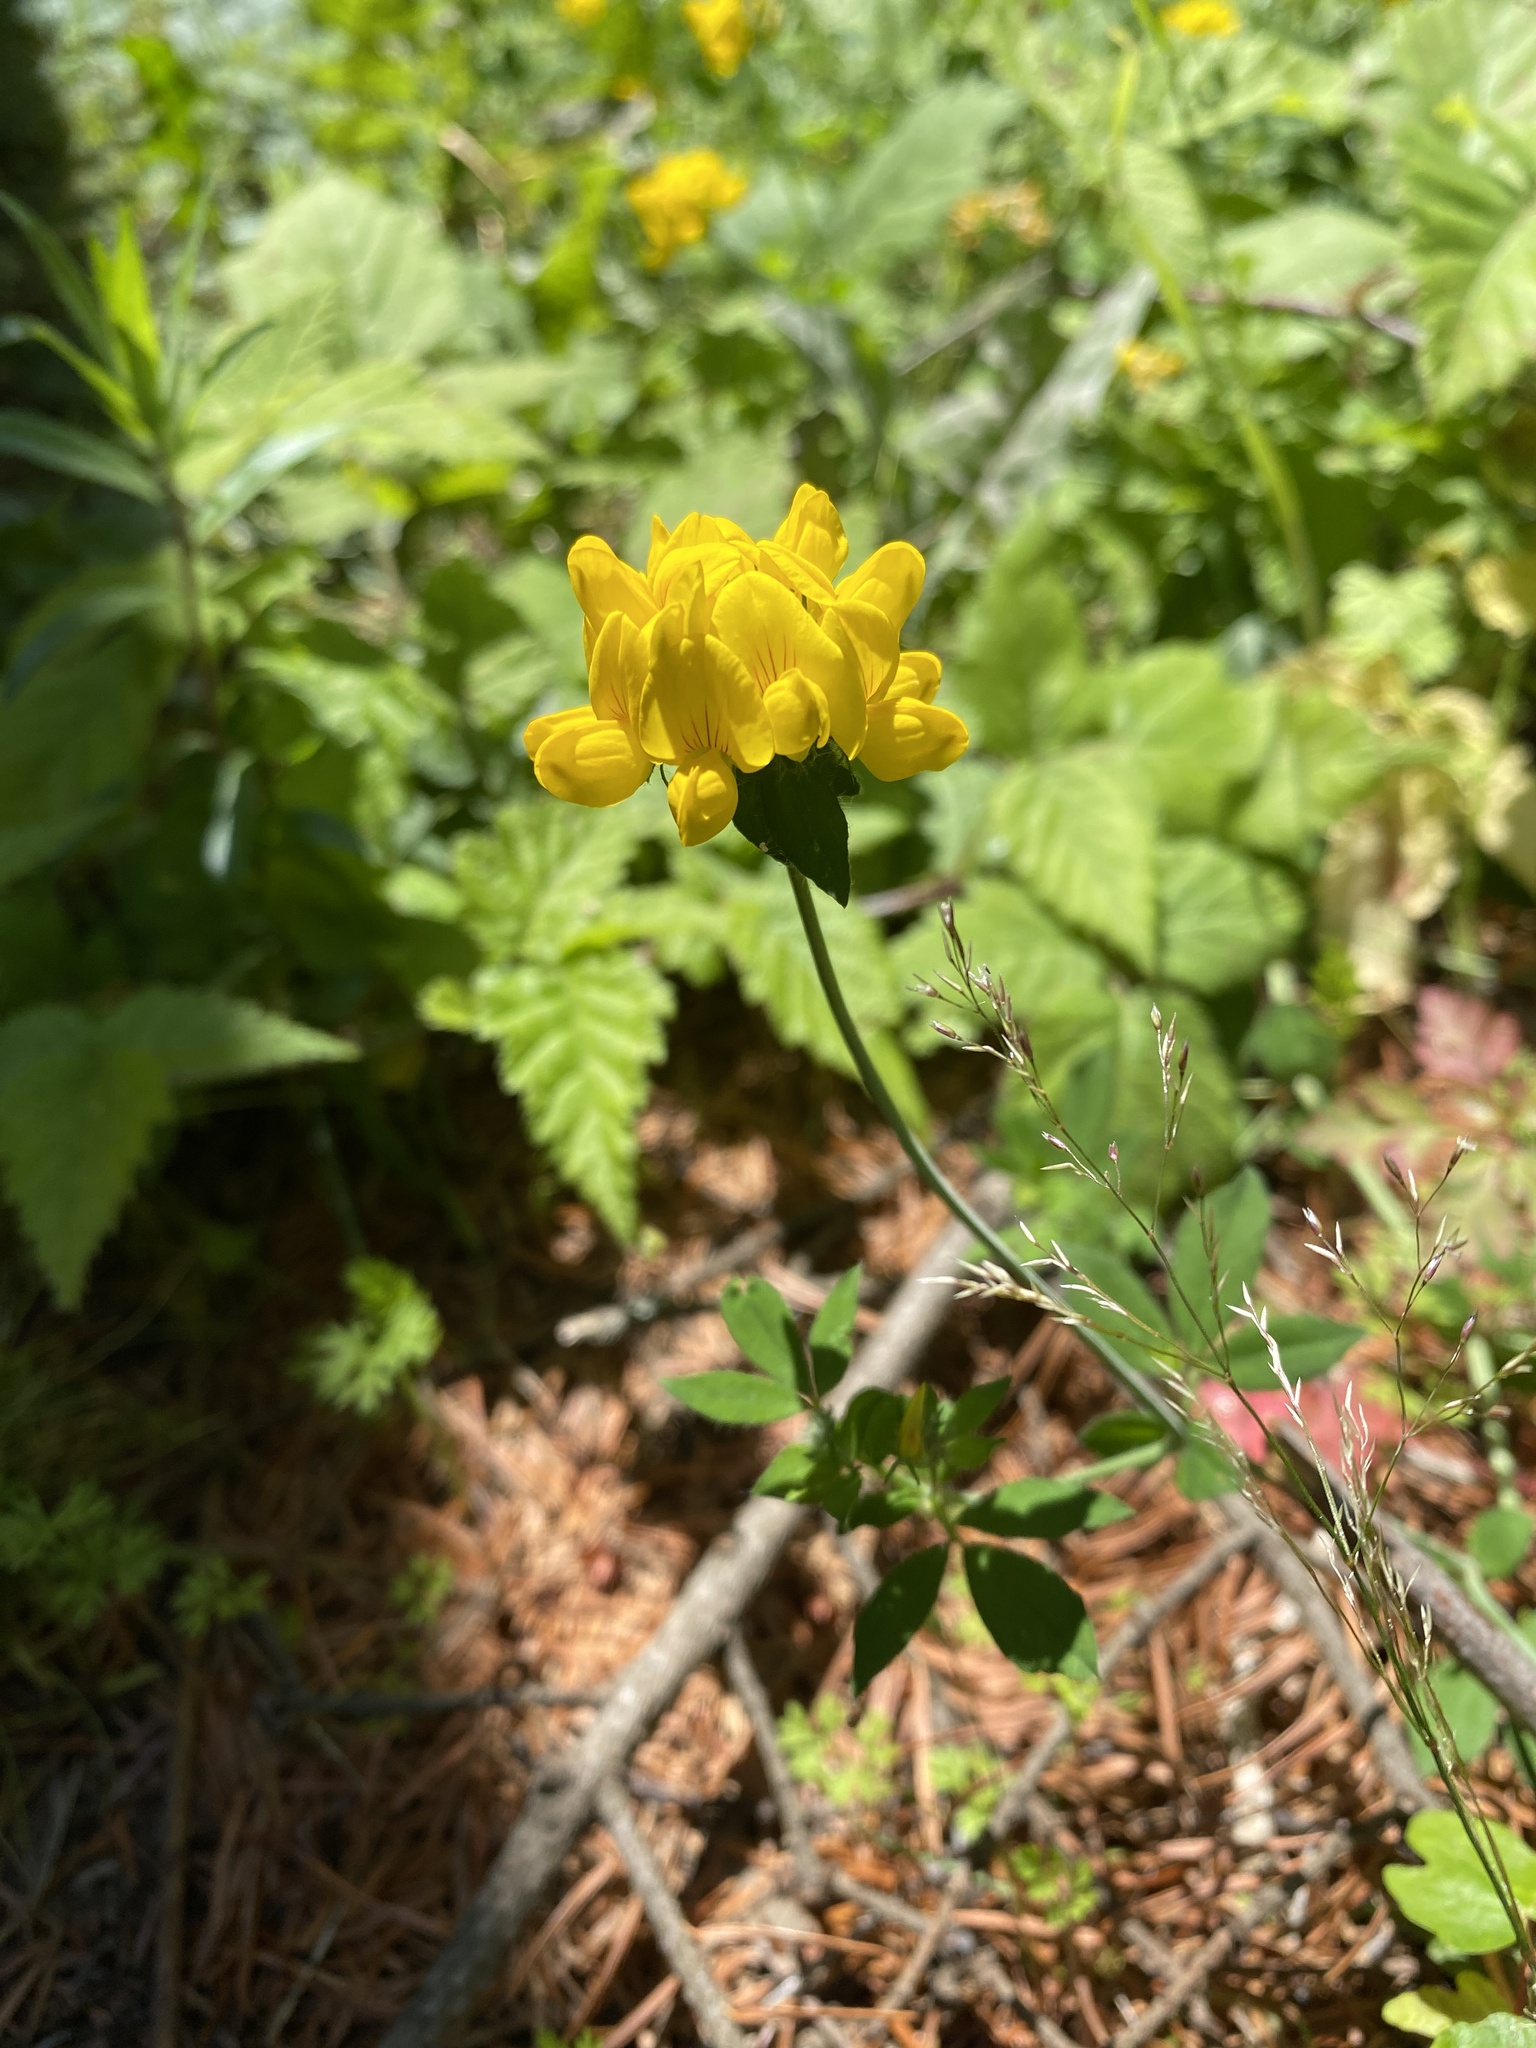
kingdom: Plantae
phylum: Tracheophyta
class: Magnoliopsida
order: Fabales
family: Fabaceae
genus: Lotus
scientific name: Lotus pedunculatus
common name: Greater birdsfoot-trefoil
